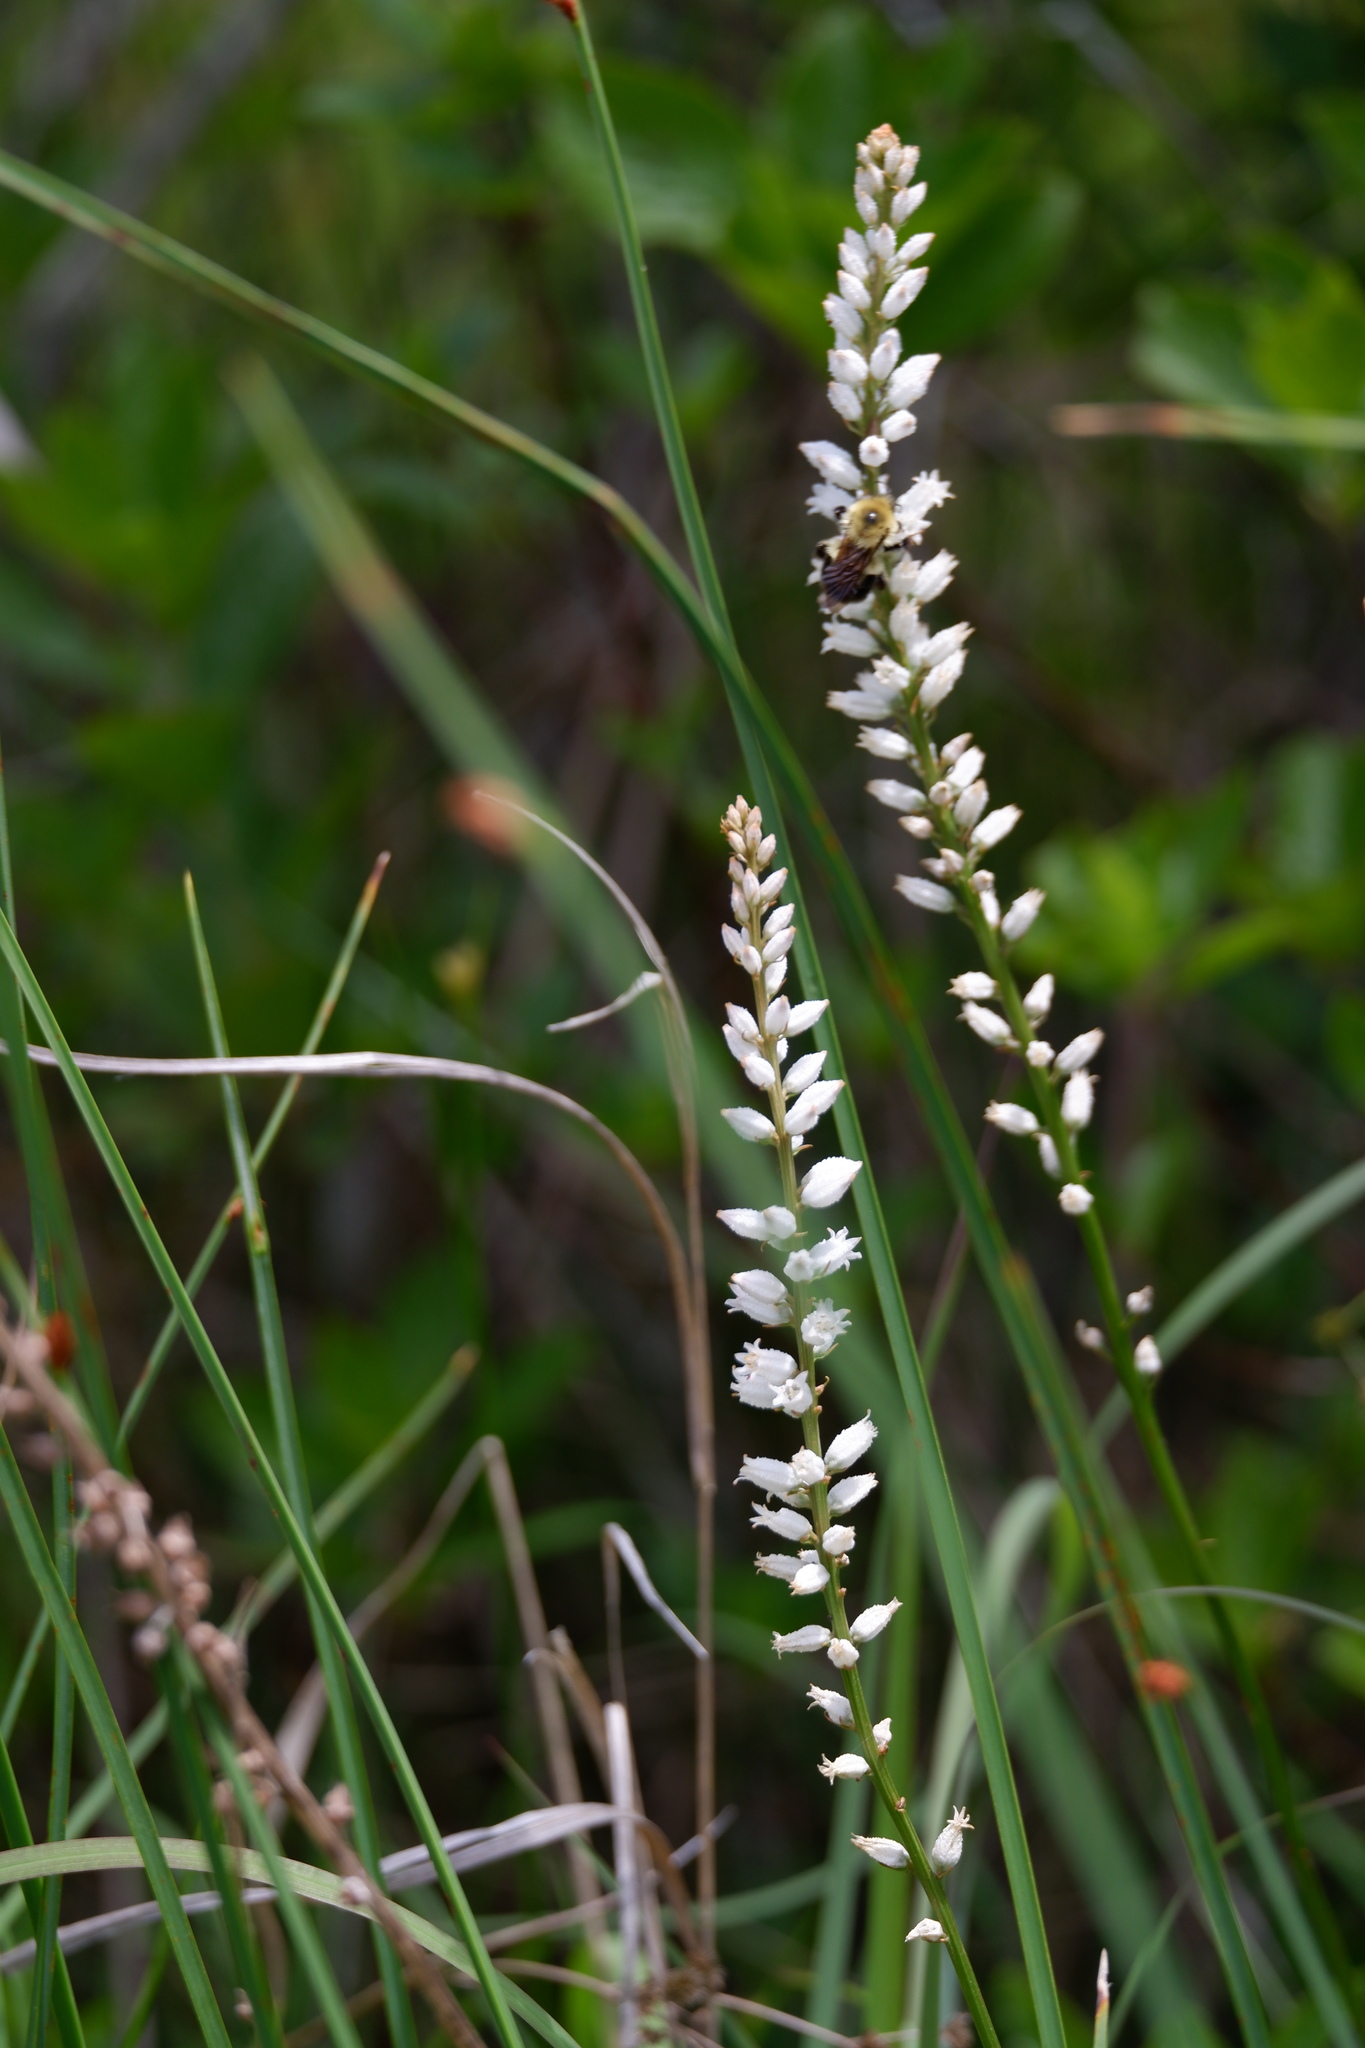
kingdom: Animalia
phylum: Arthropoda
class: Insecta
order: Hymenoptera
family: Apidae
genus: Bombus
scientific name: Bombus bimaculatus
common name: Two-spotted bumble bee
